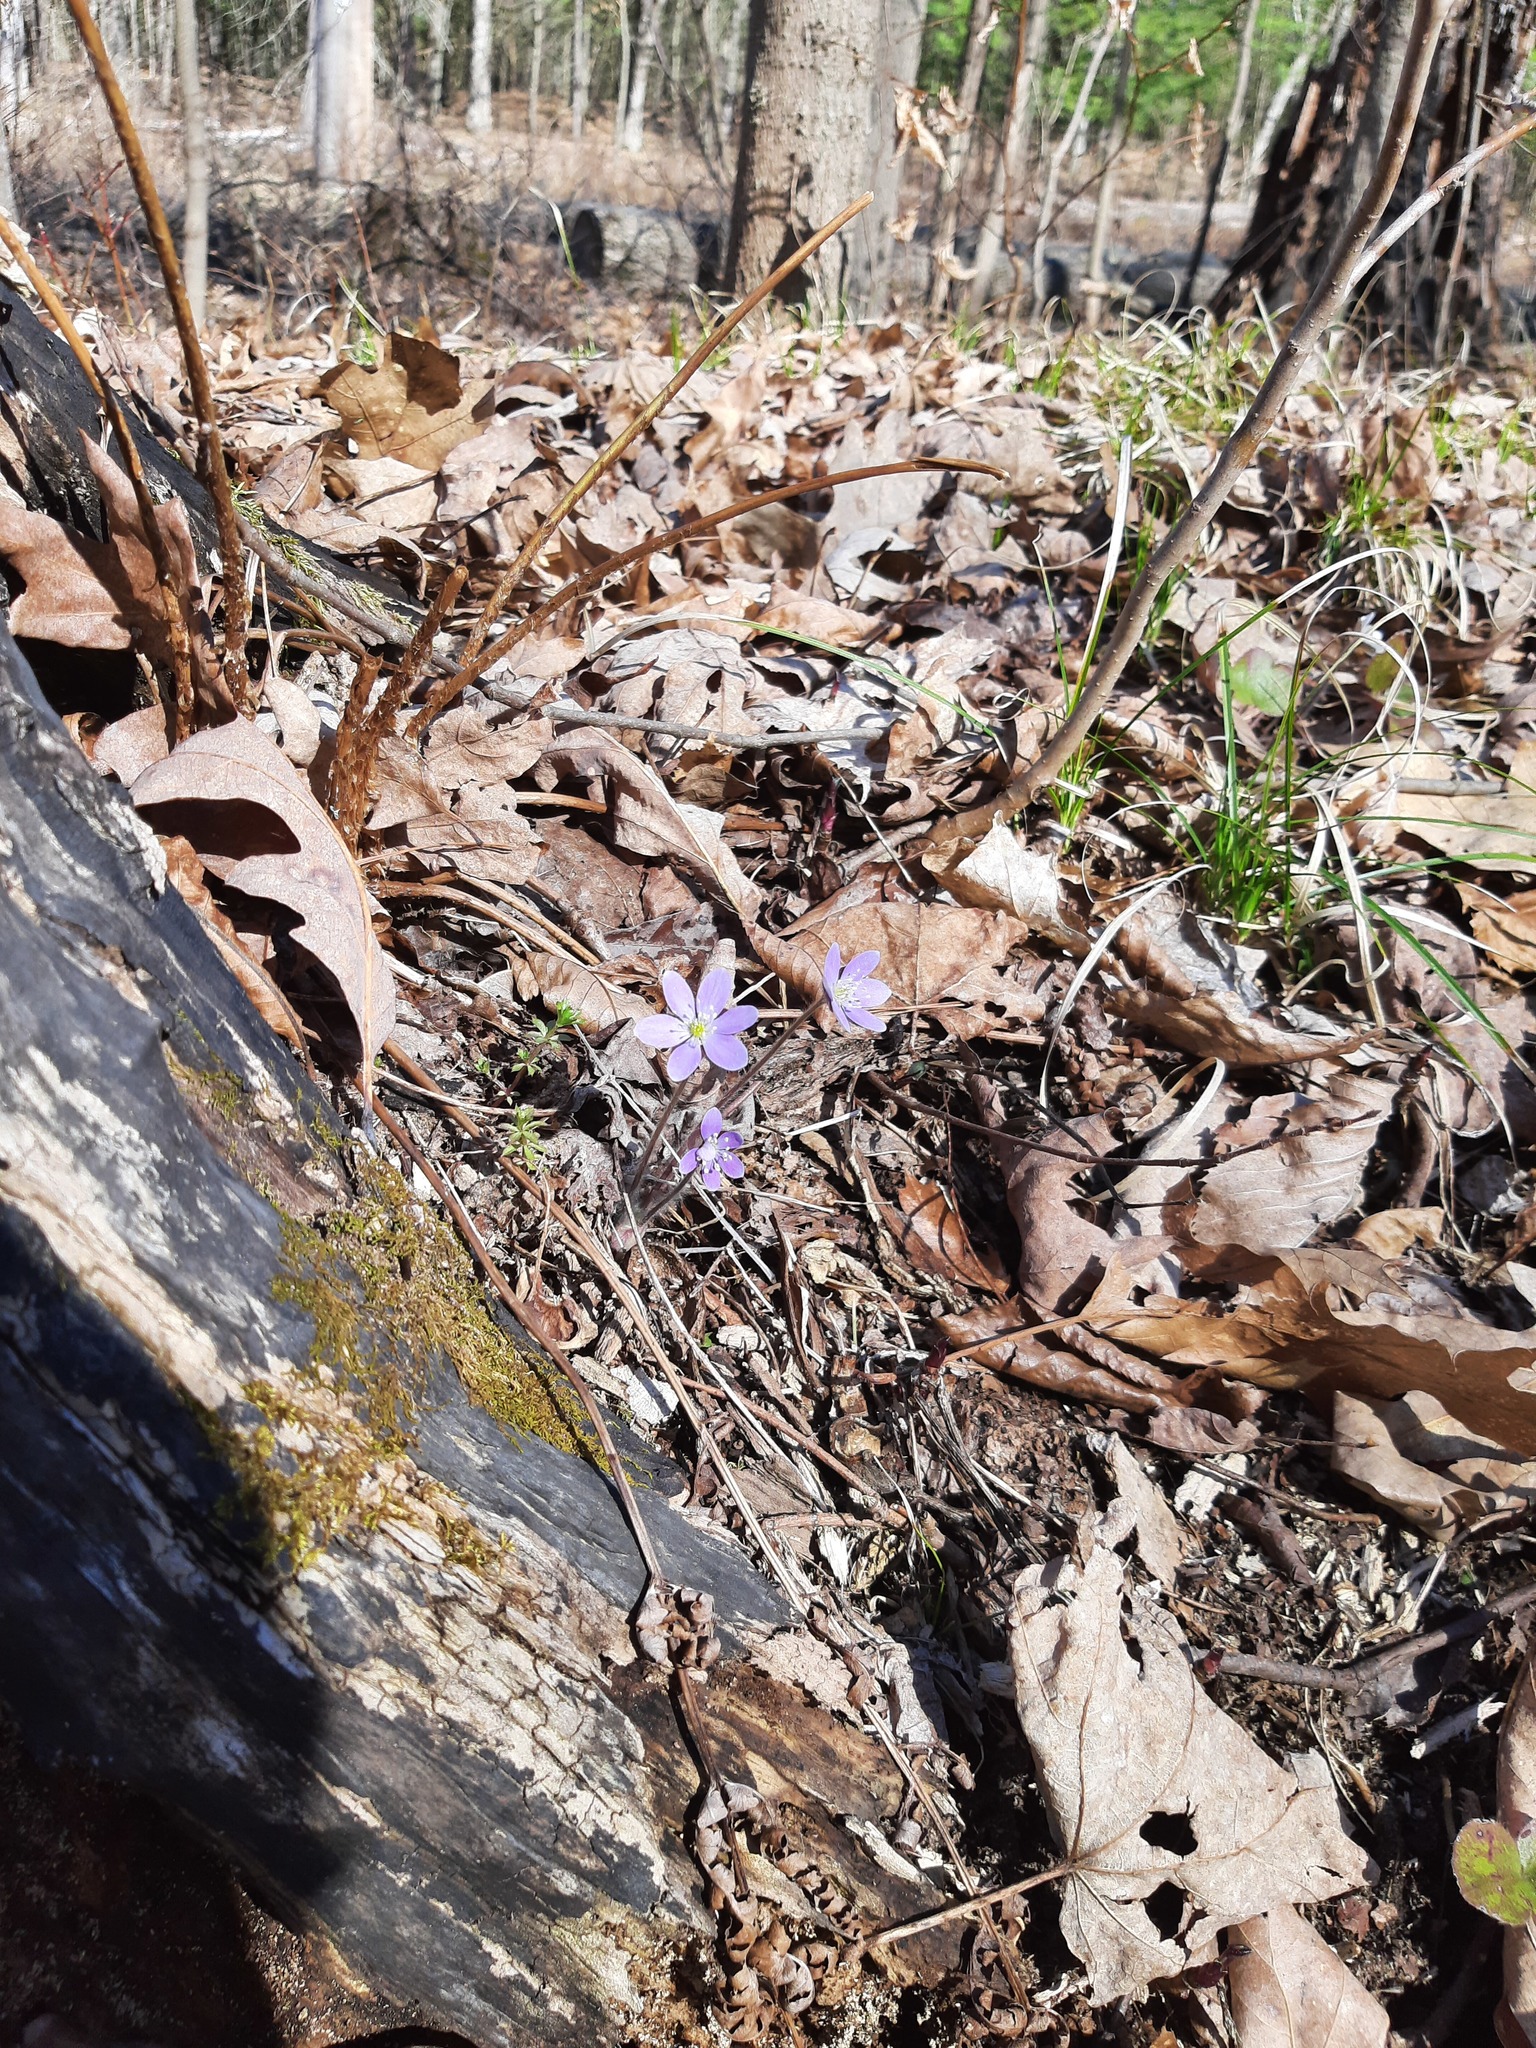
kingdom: Plantae
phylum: Tracheophyta
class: Magnoliopsida
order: Ranunculales
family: Ranunculaceae
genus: Hepatica
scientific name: Hepatica americana
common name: American hepatica
